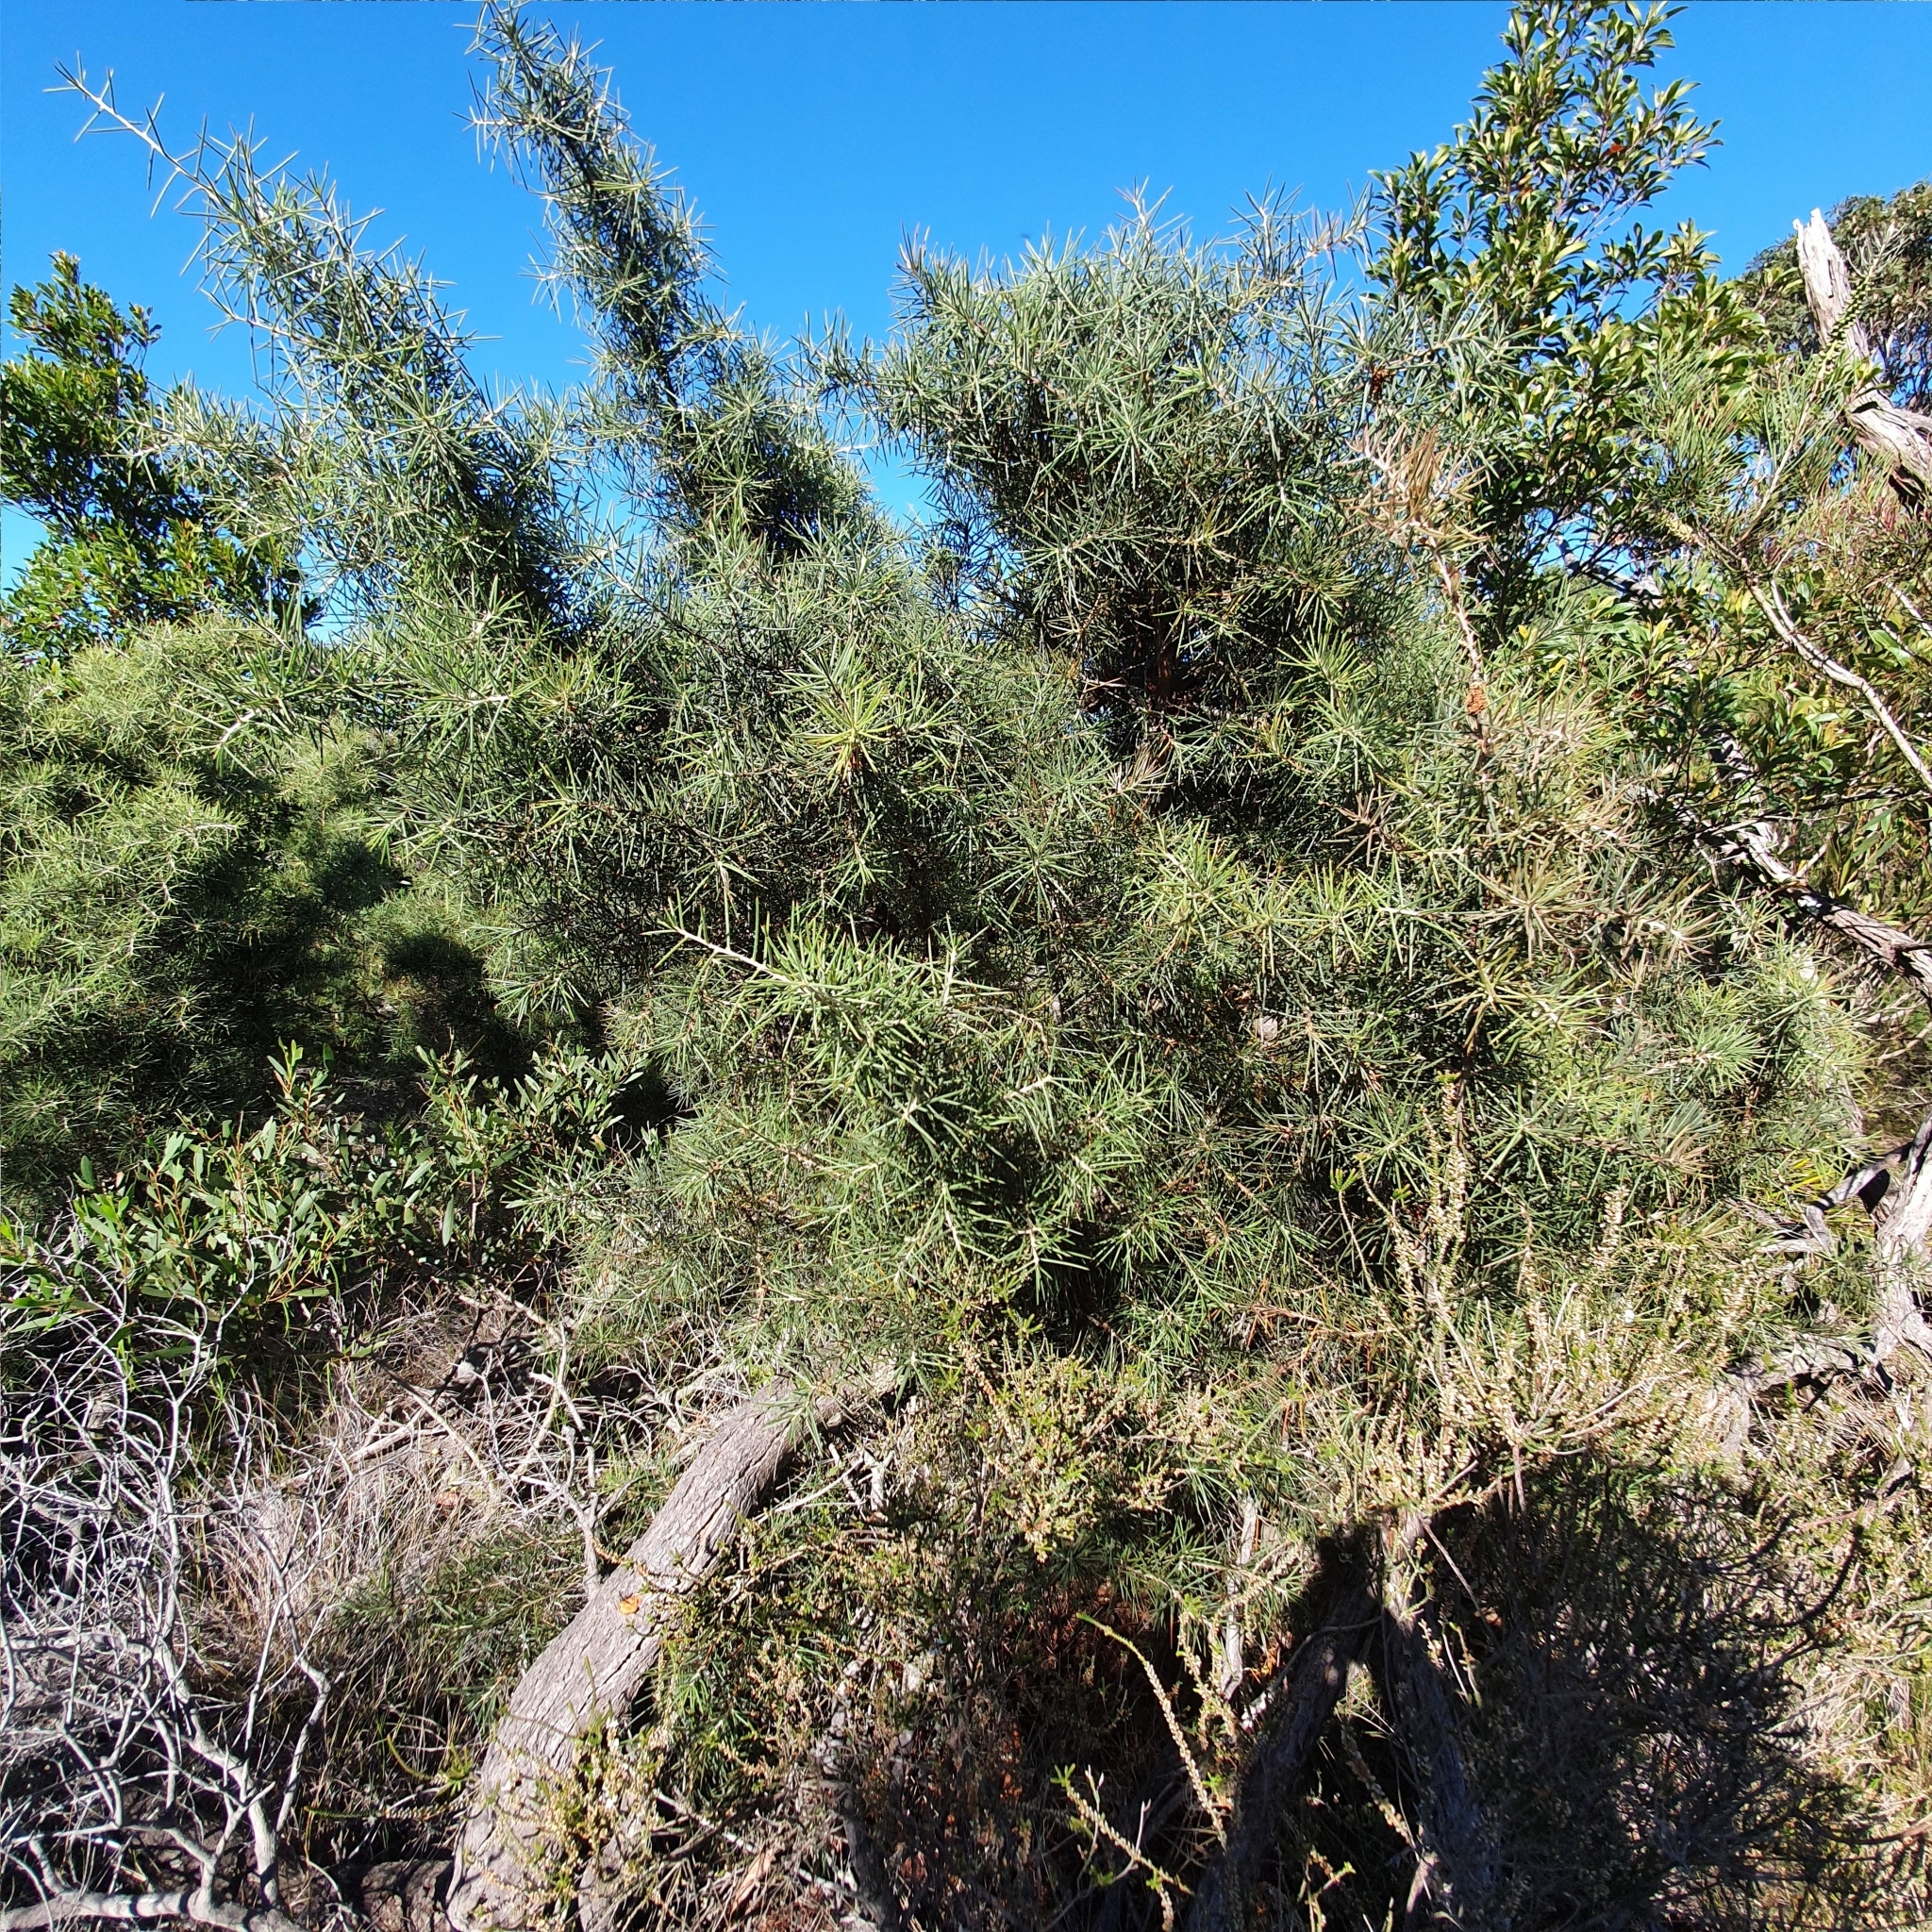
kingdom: Plantae
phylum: Tracheophyta
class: Magnoliopsida
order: Proteales
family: Proteaceae
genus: Hakea
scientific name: Hakea gibbosa
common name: Rock hakea
